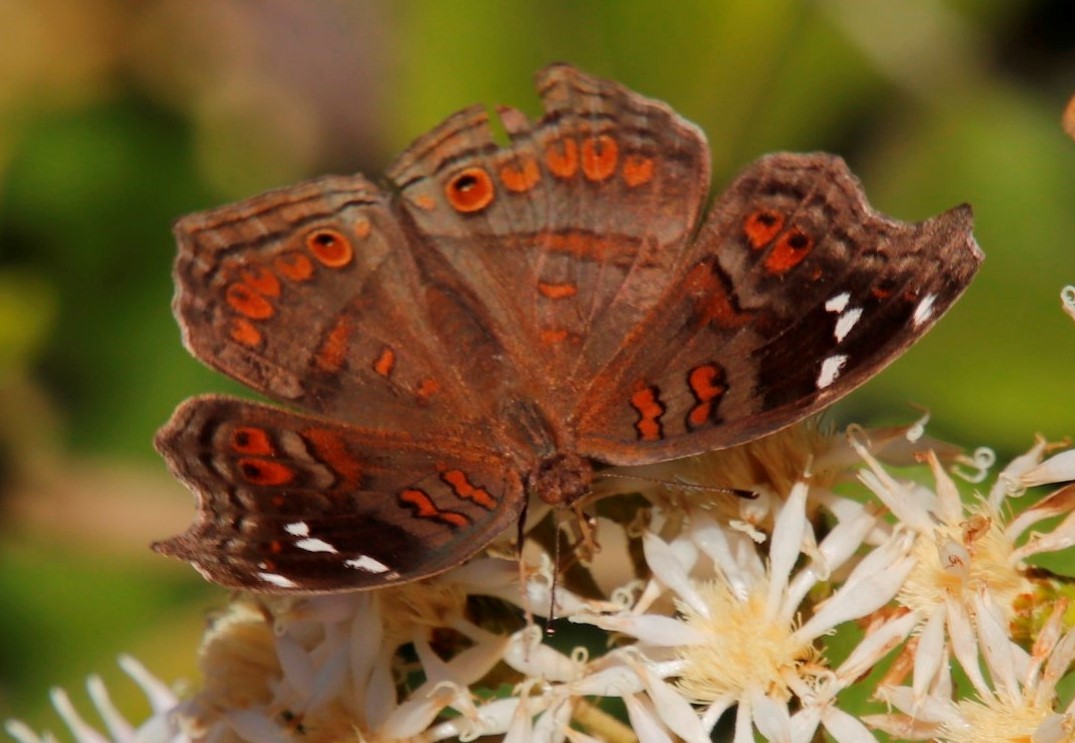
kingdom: Animalia
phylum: Arthropoda
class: Insecta
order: Lepidoptera
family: Nymphalidae
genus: Junonia
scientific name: Junonia natalica
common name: Brown pansy
